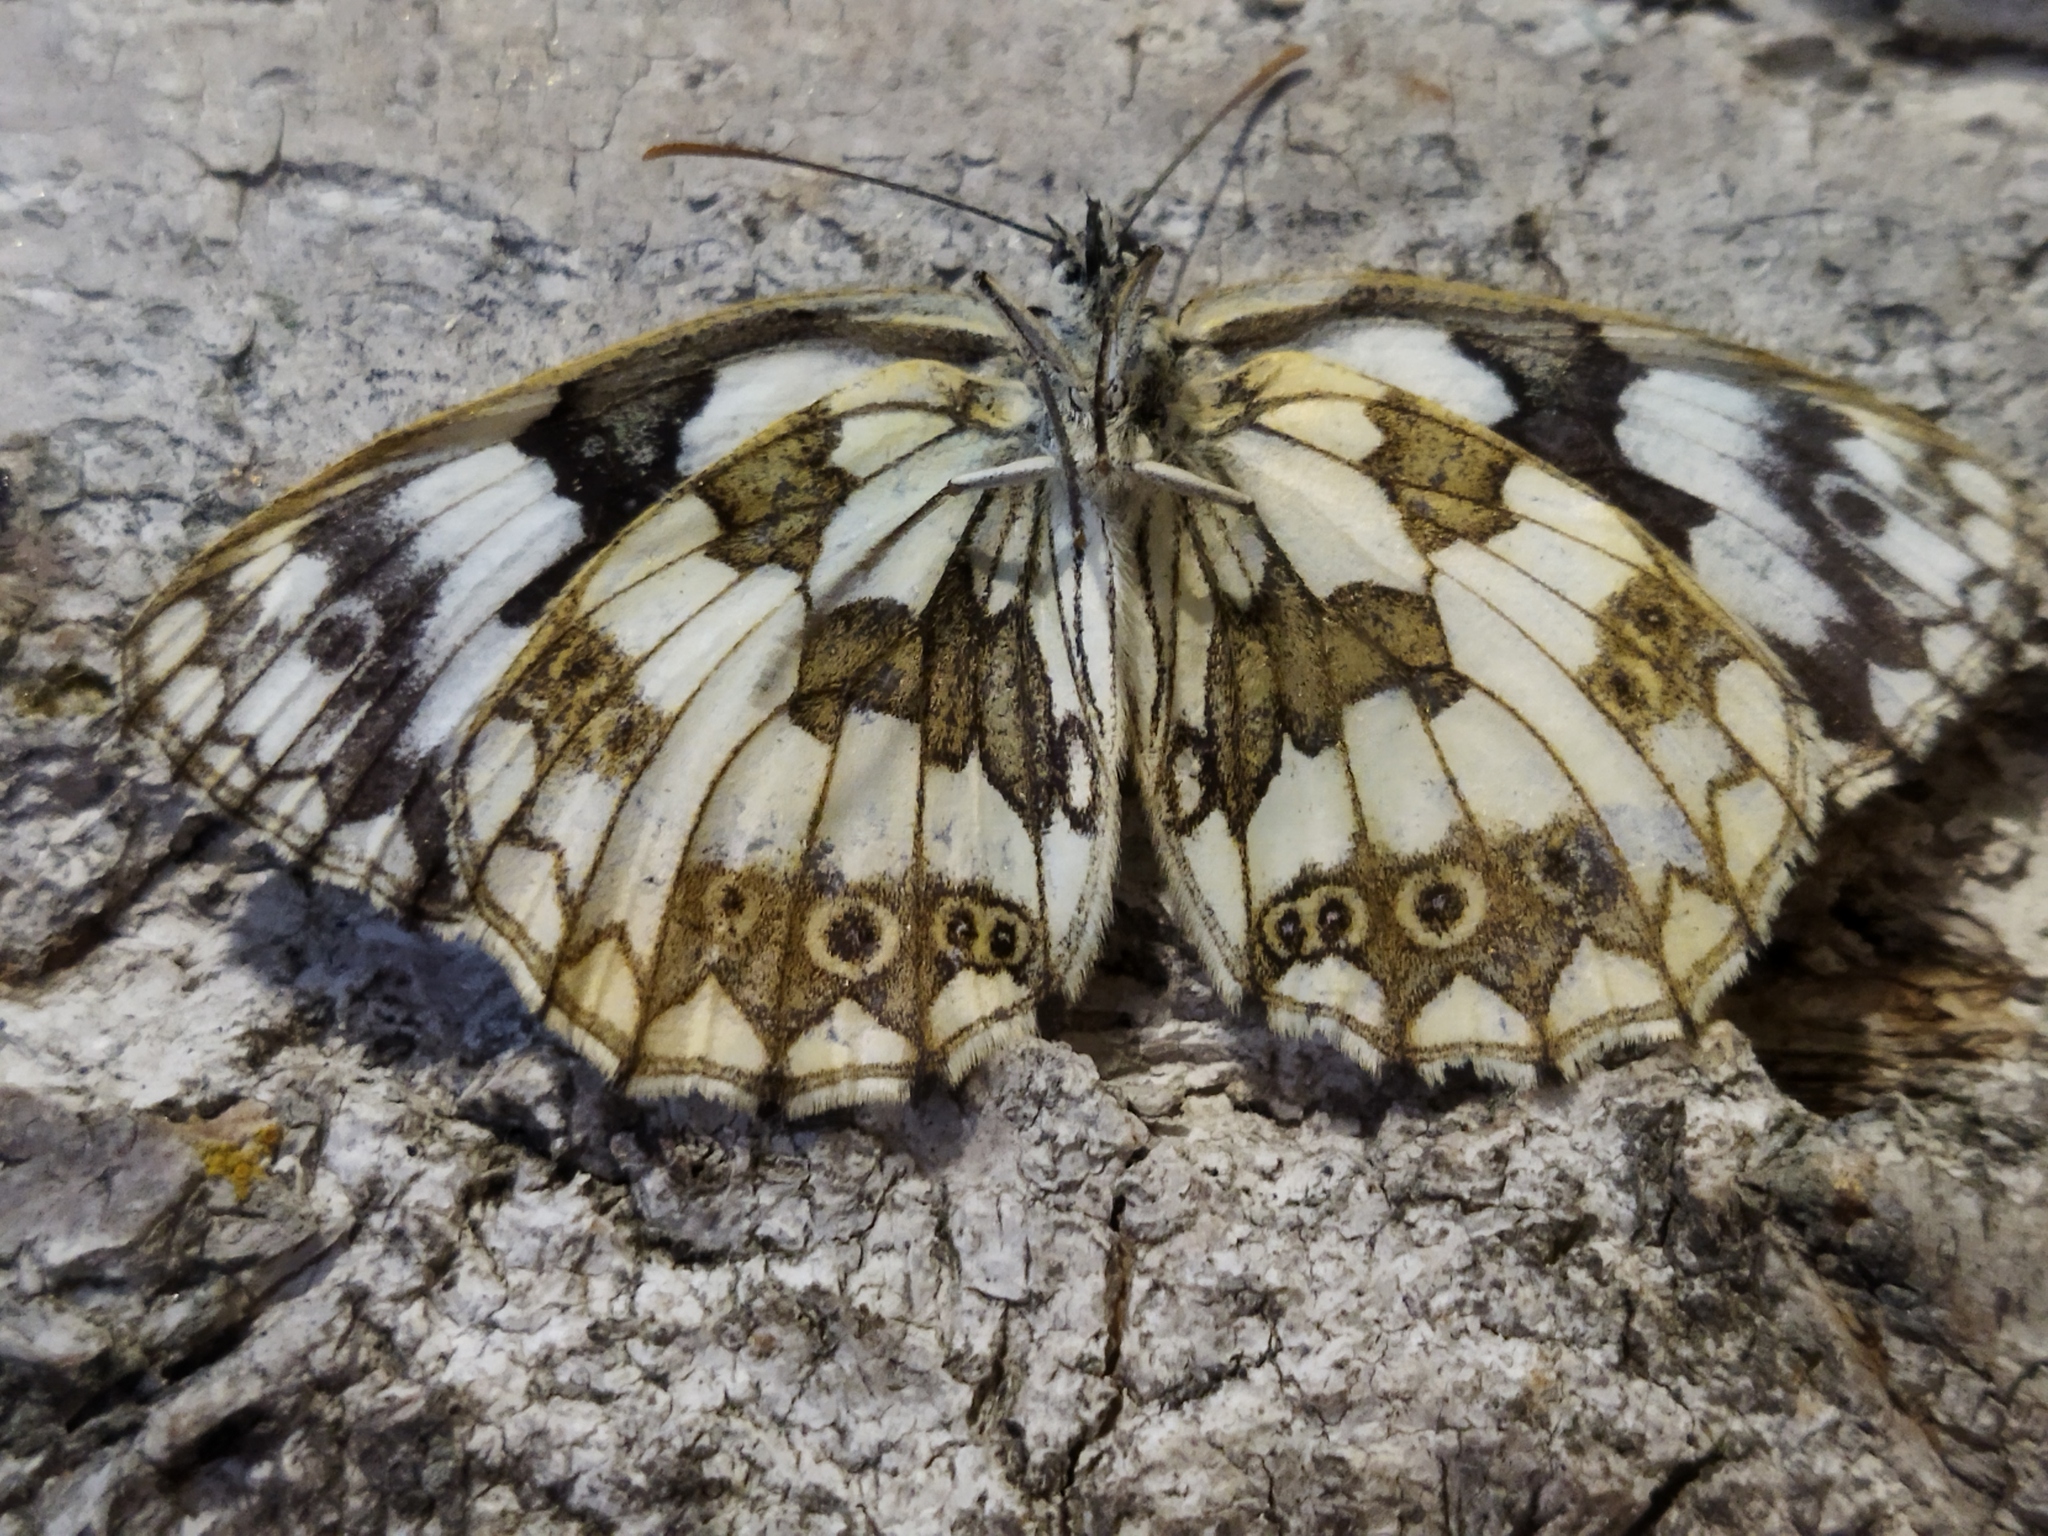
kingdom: Animalia
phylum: Arthropoda
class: Insecta
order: Lepidoptera
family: Nymphalidae
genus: Melanargia
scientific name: Melanargia galathea
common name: Marbled white
